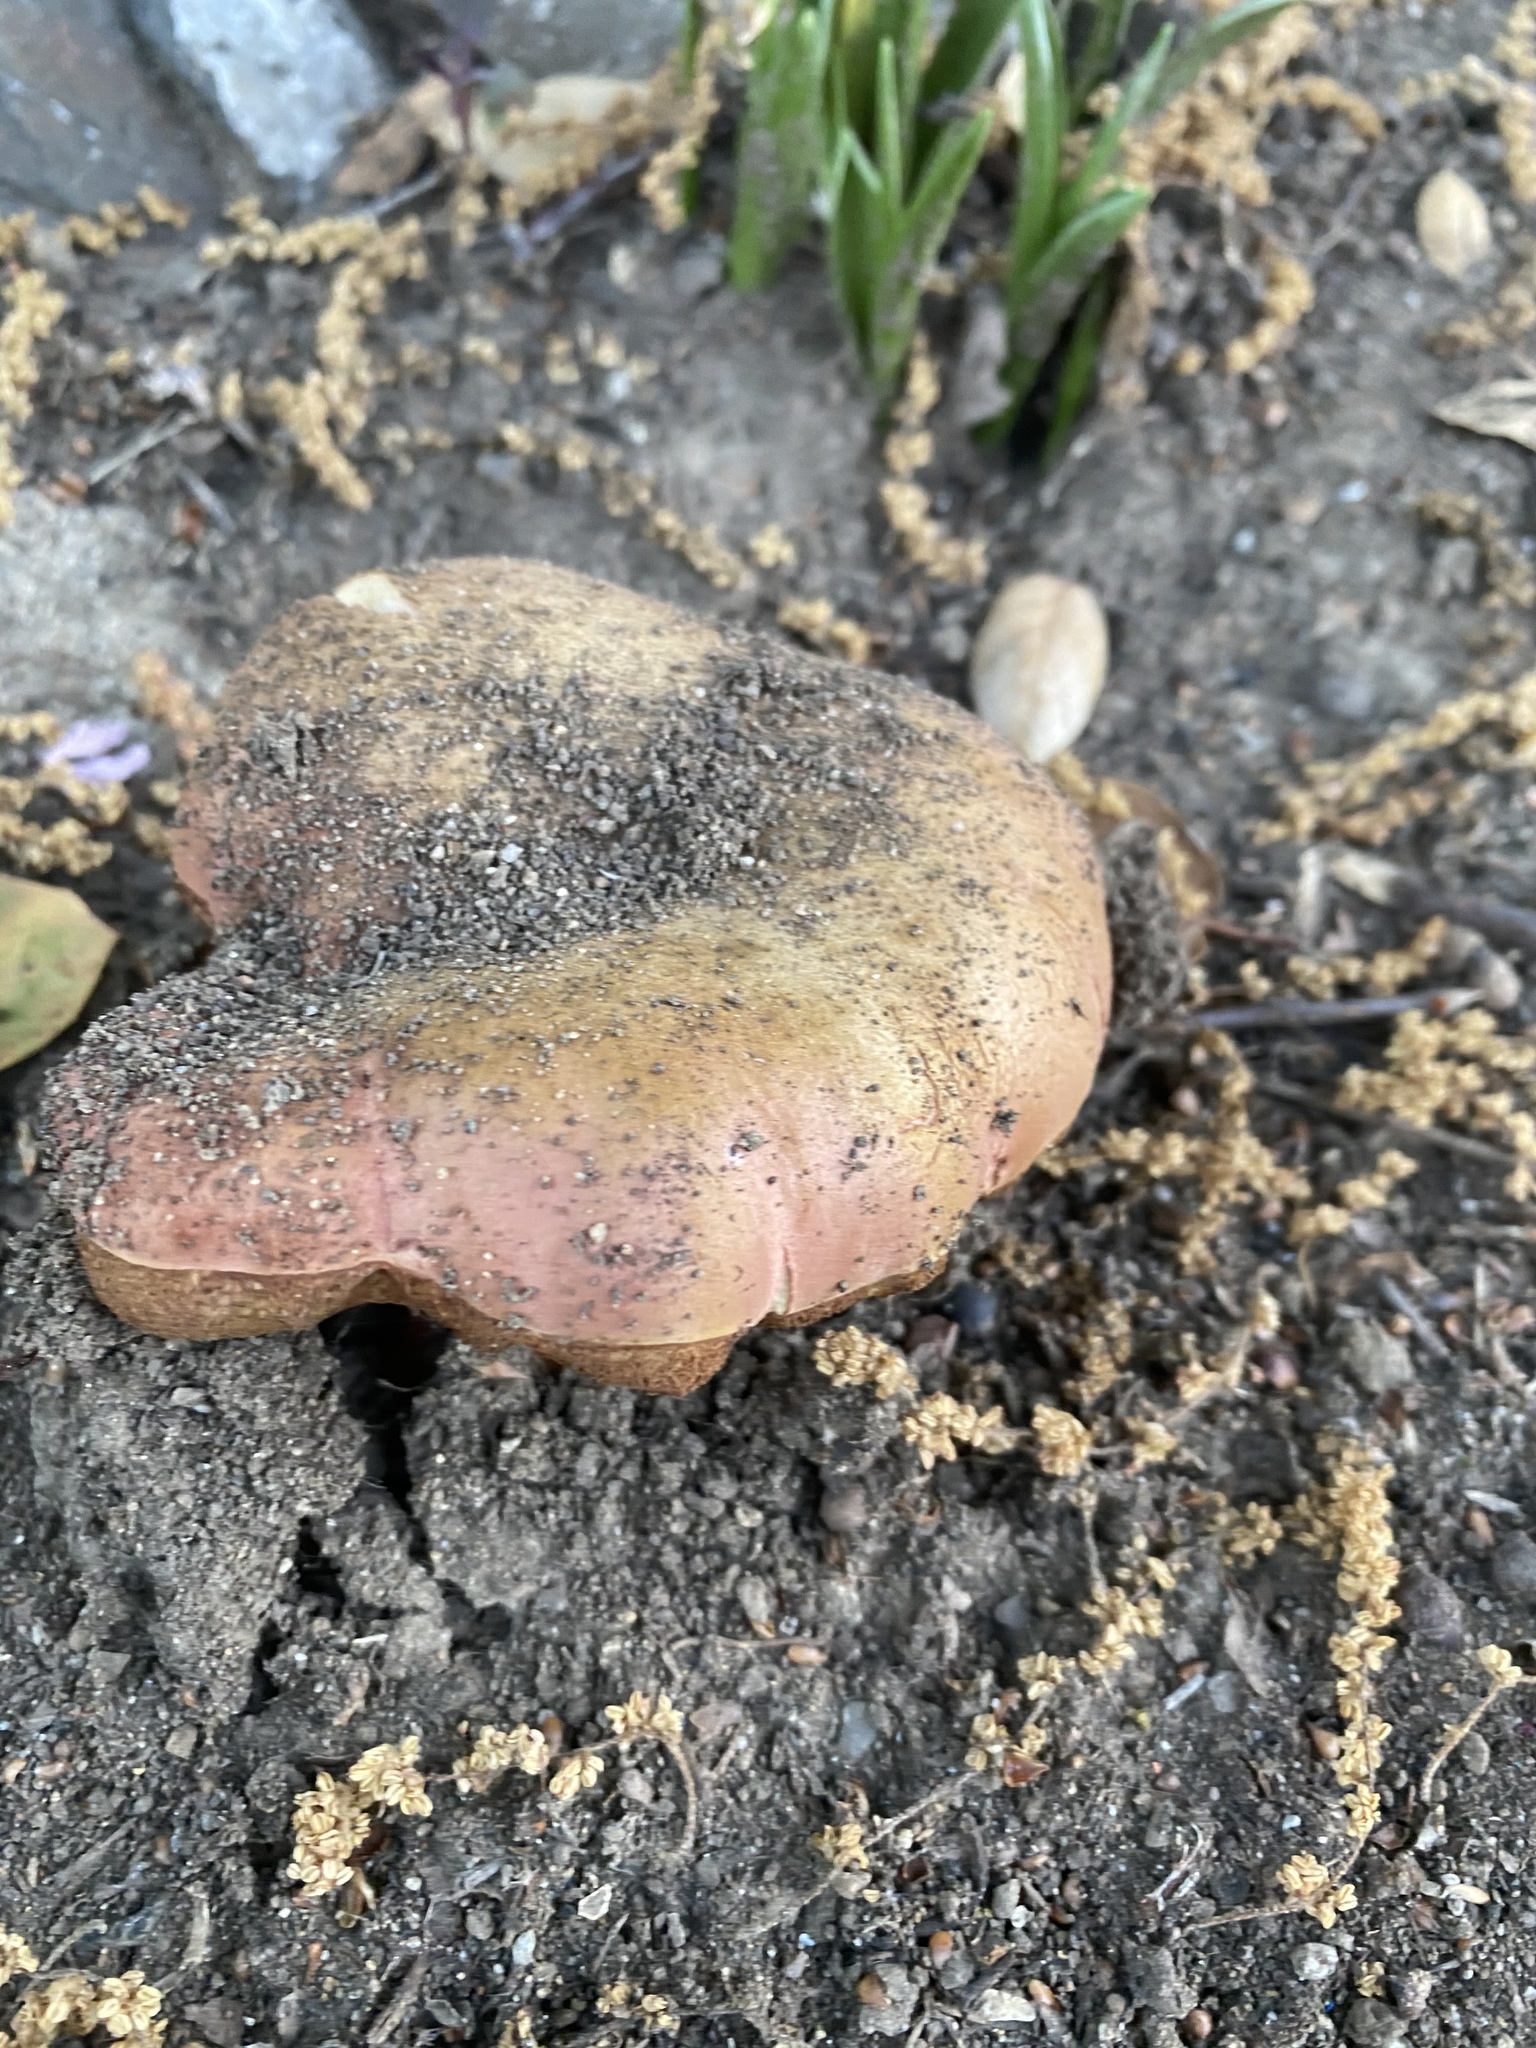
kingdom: Fungi
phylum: Basidiomycota
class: Agaricomycetes
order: Boletales
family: Boletaceae
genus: Suillellus
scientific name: Suillellus amygdalinus
